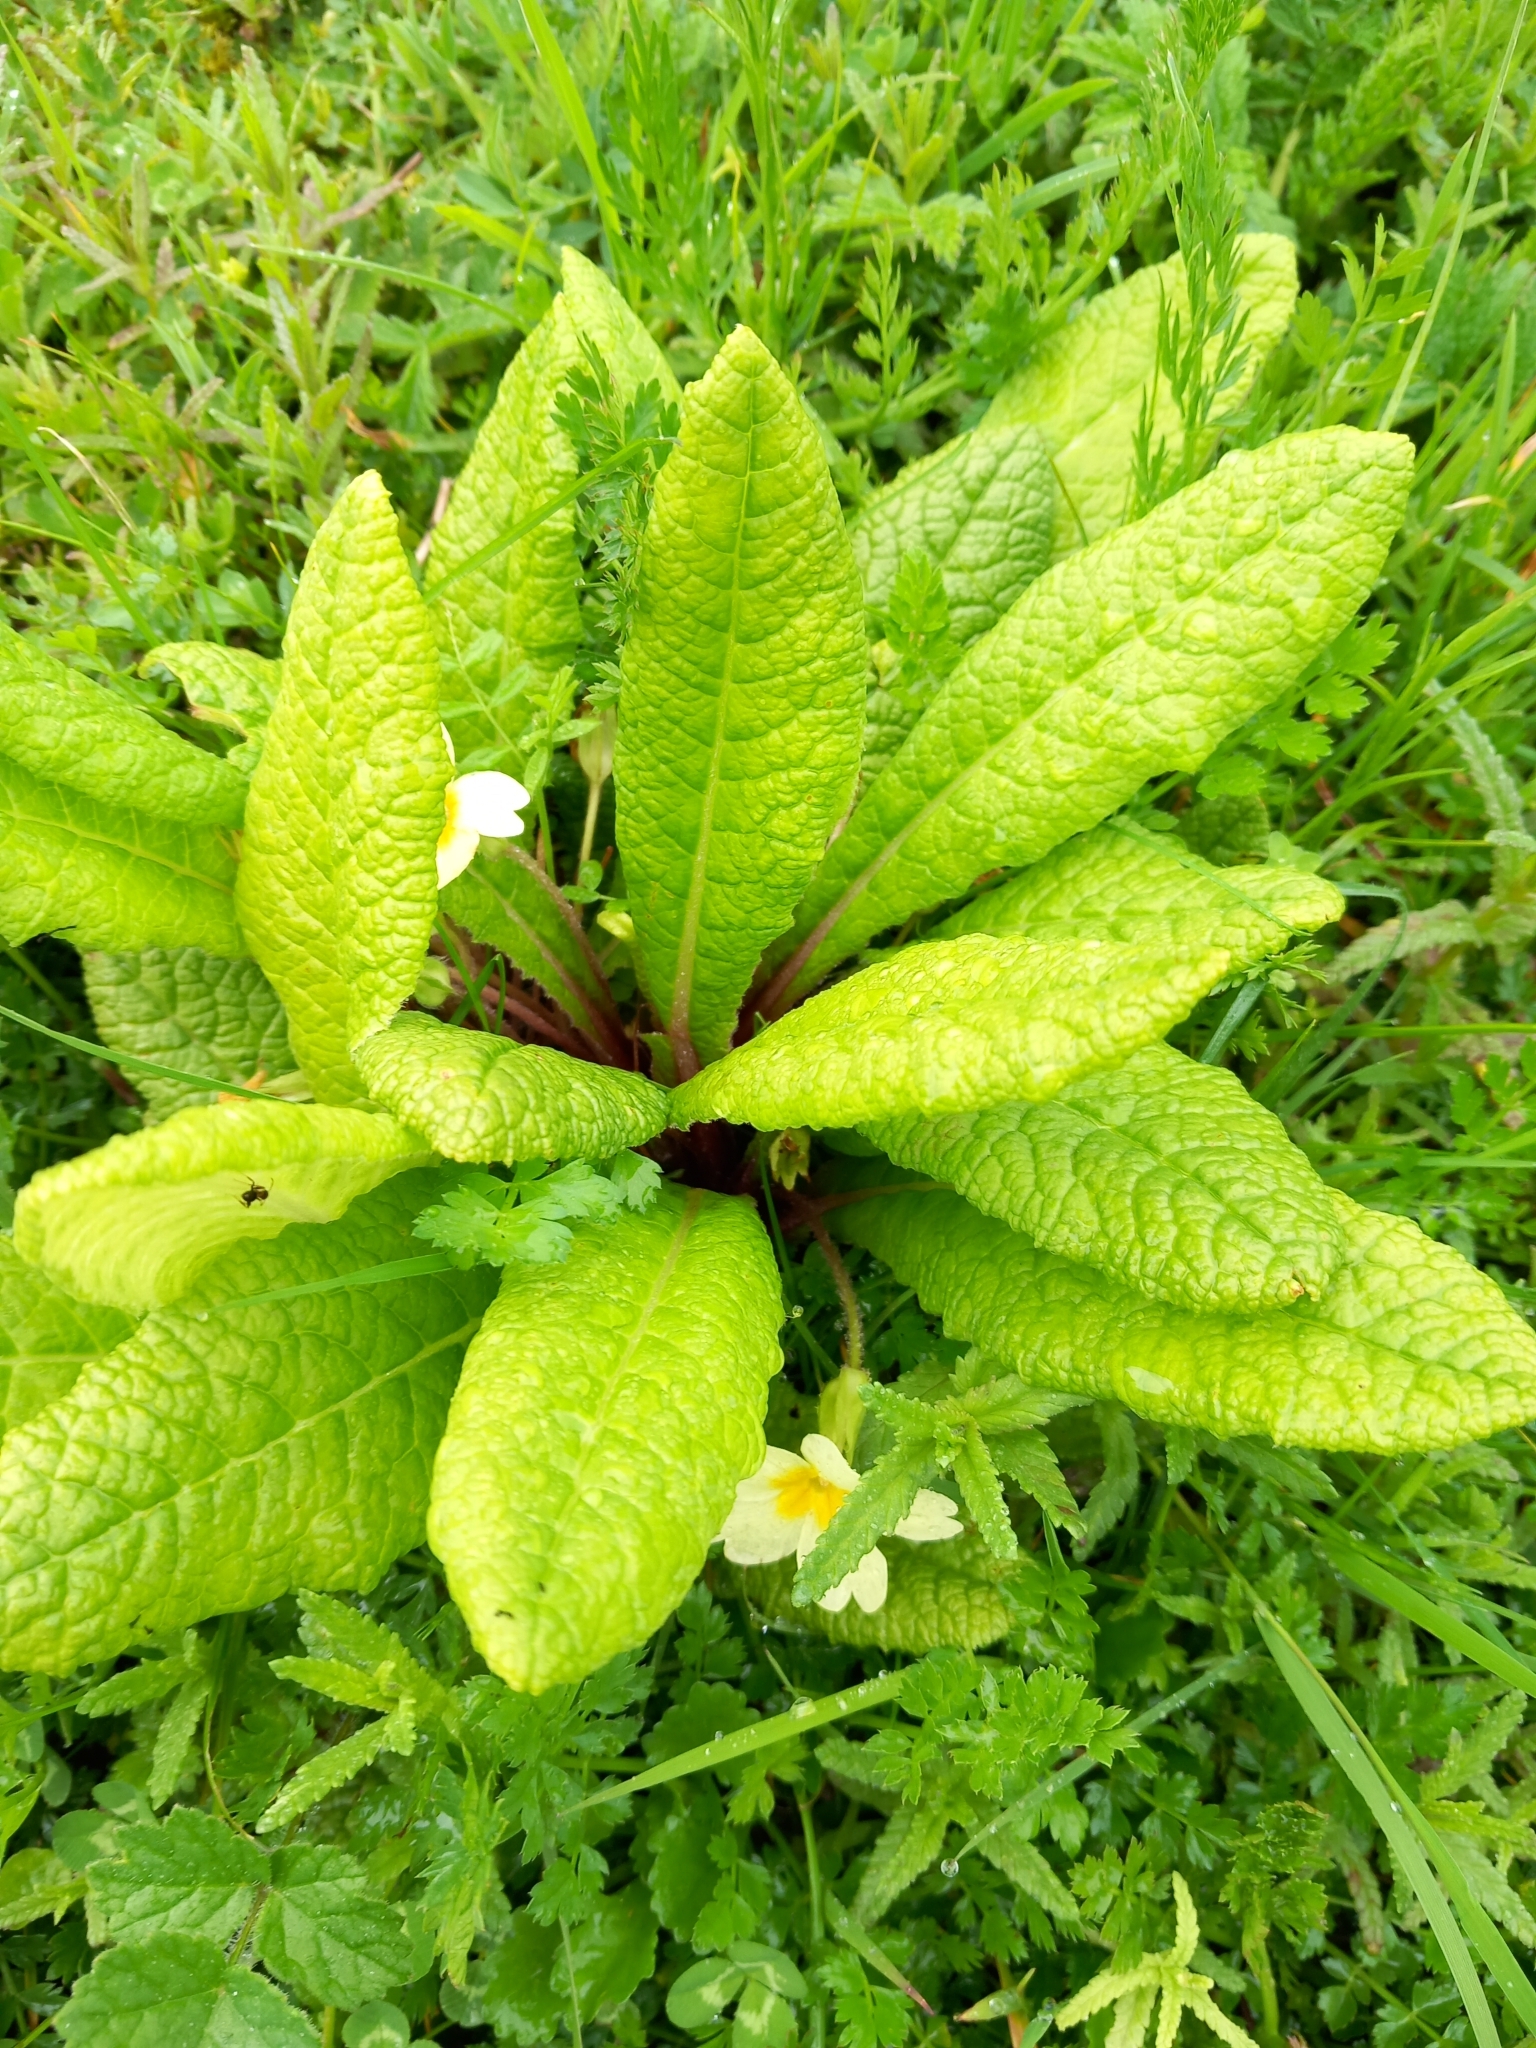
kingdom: Plantae
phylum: Tracheophyta
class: Magnoliopsida
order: Ericales
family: Primulaceae
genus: Primula
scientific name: Primula vulgaris
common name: Primrose
